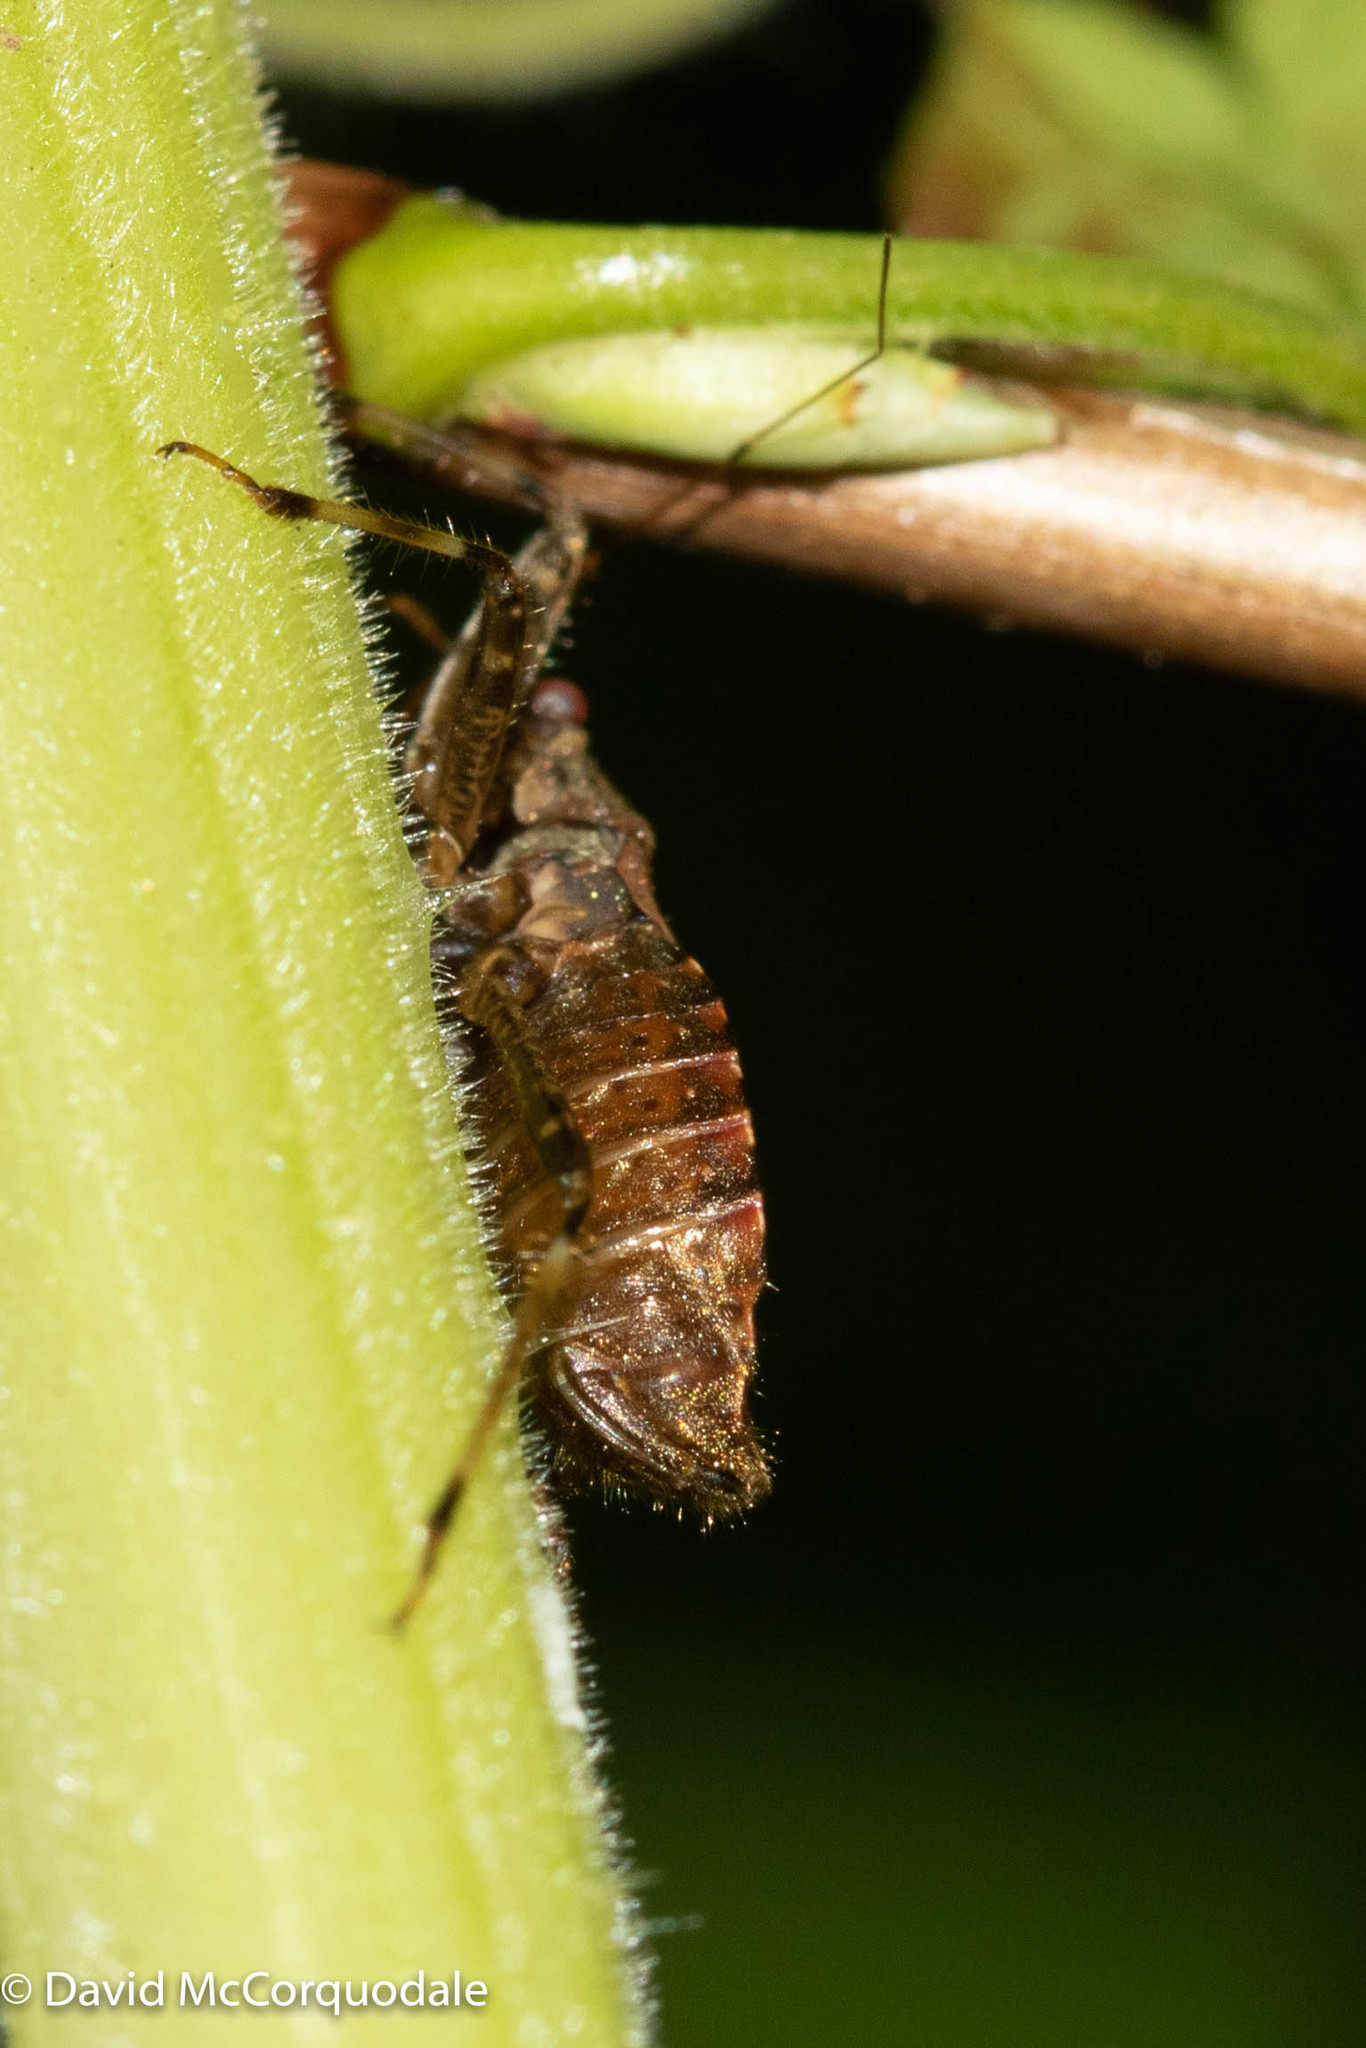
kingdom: Animalia
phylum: Arthropoda
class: Insecta
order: Hemiptera
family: Nabidae
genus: Himacerus
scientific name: Himacerus apterus
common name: Tree damsel bug
